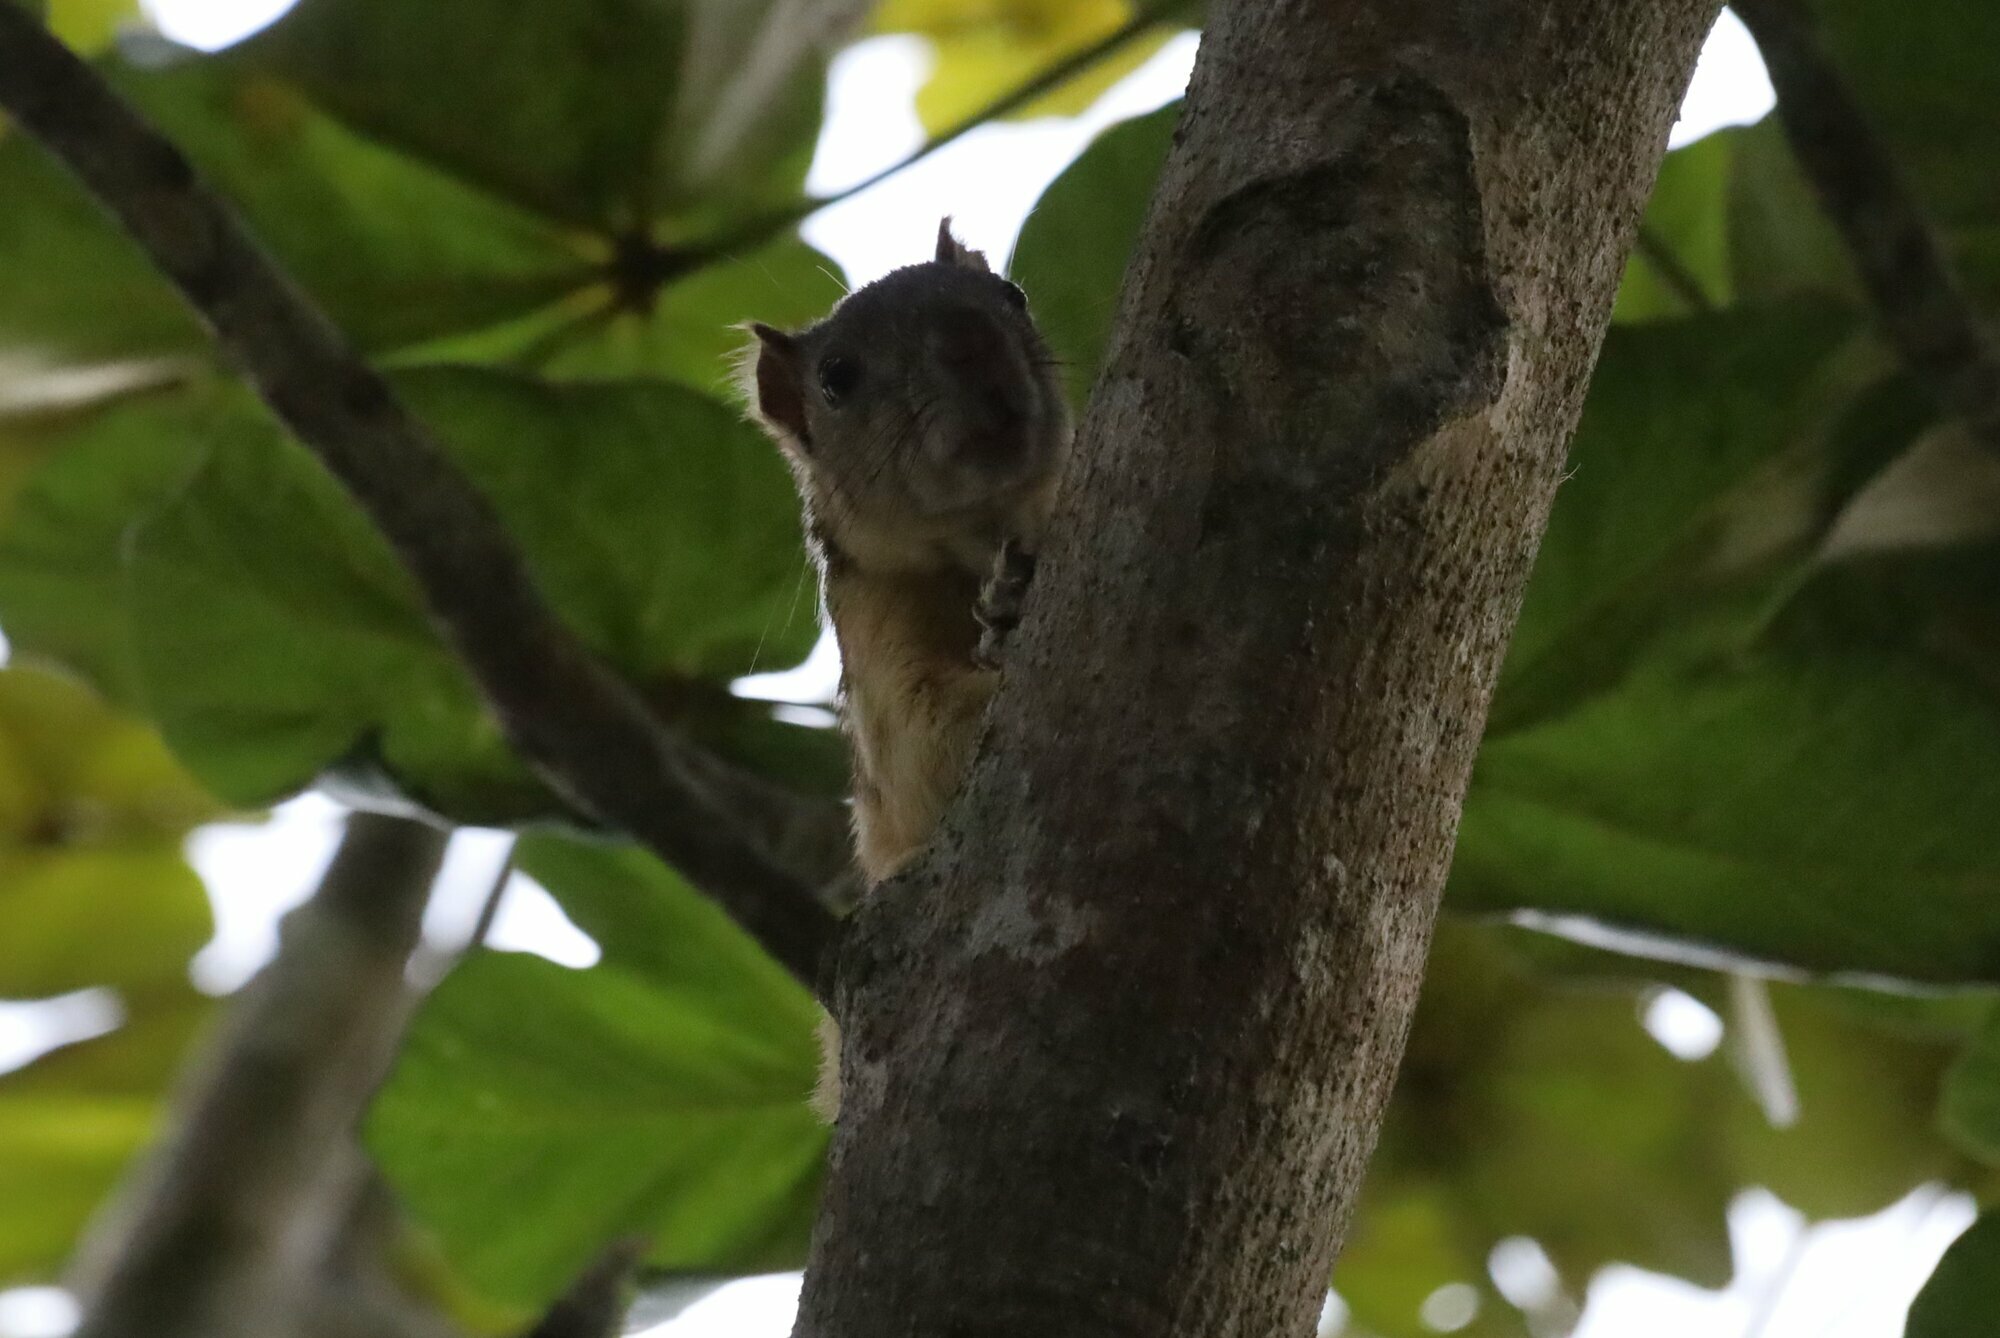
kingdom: Animalia
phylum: Chordata
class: Mammalia
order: Rodentia
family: Sciuridae
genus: Sciurus
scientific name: Sciurus variegatoides
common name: Variegated squirrel
